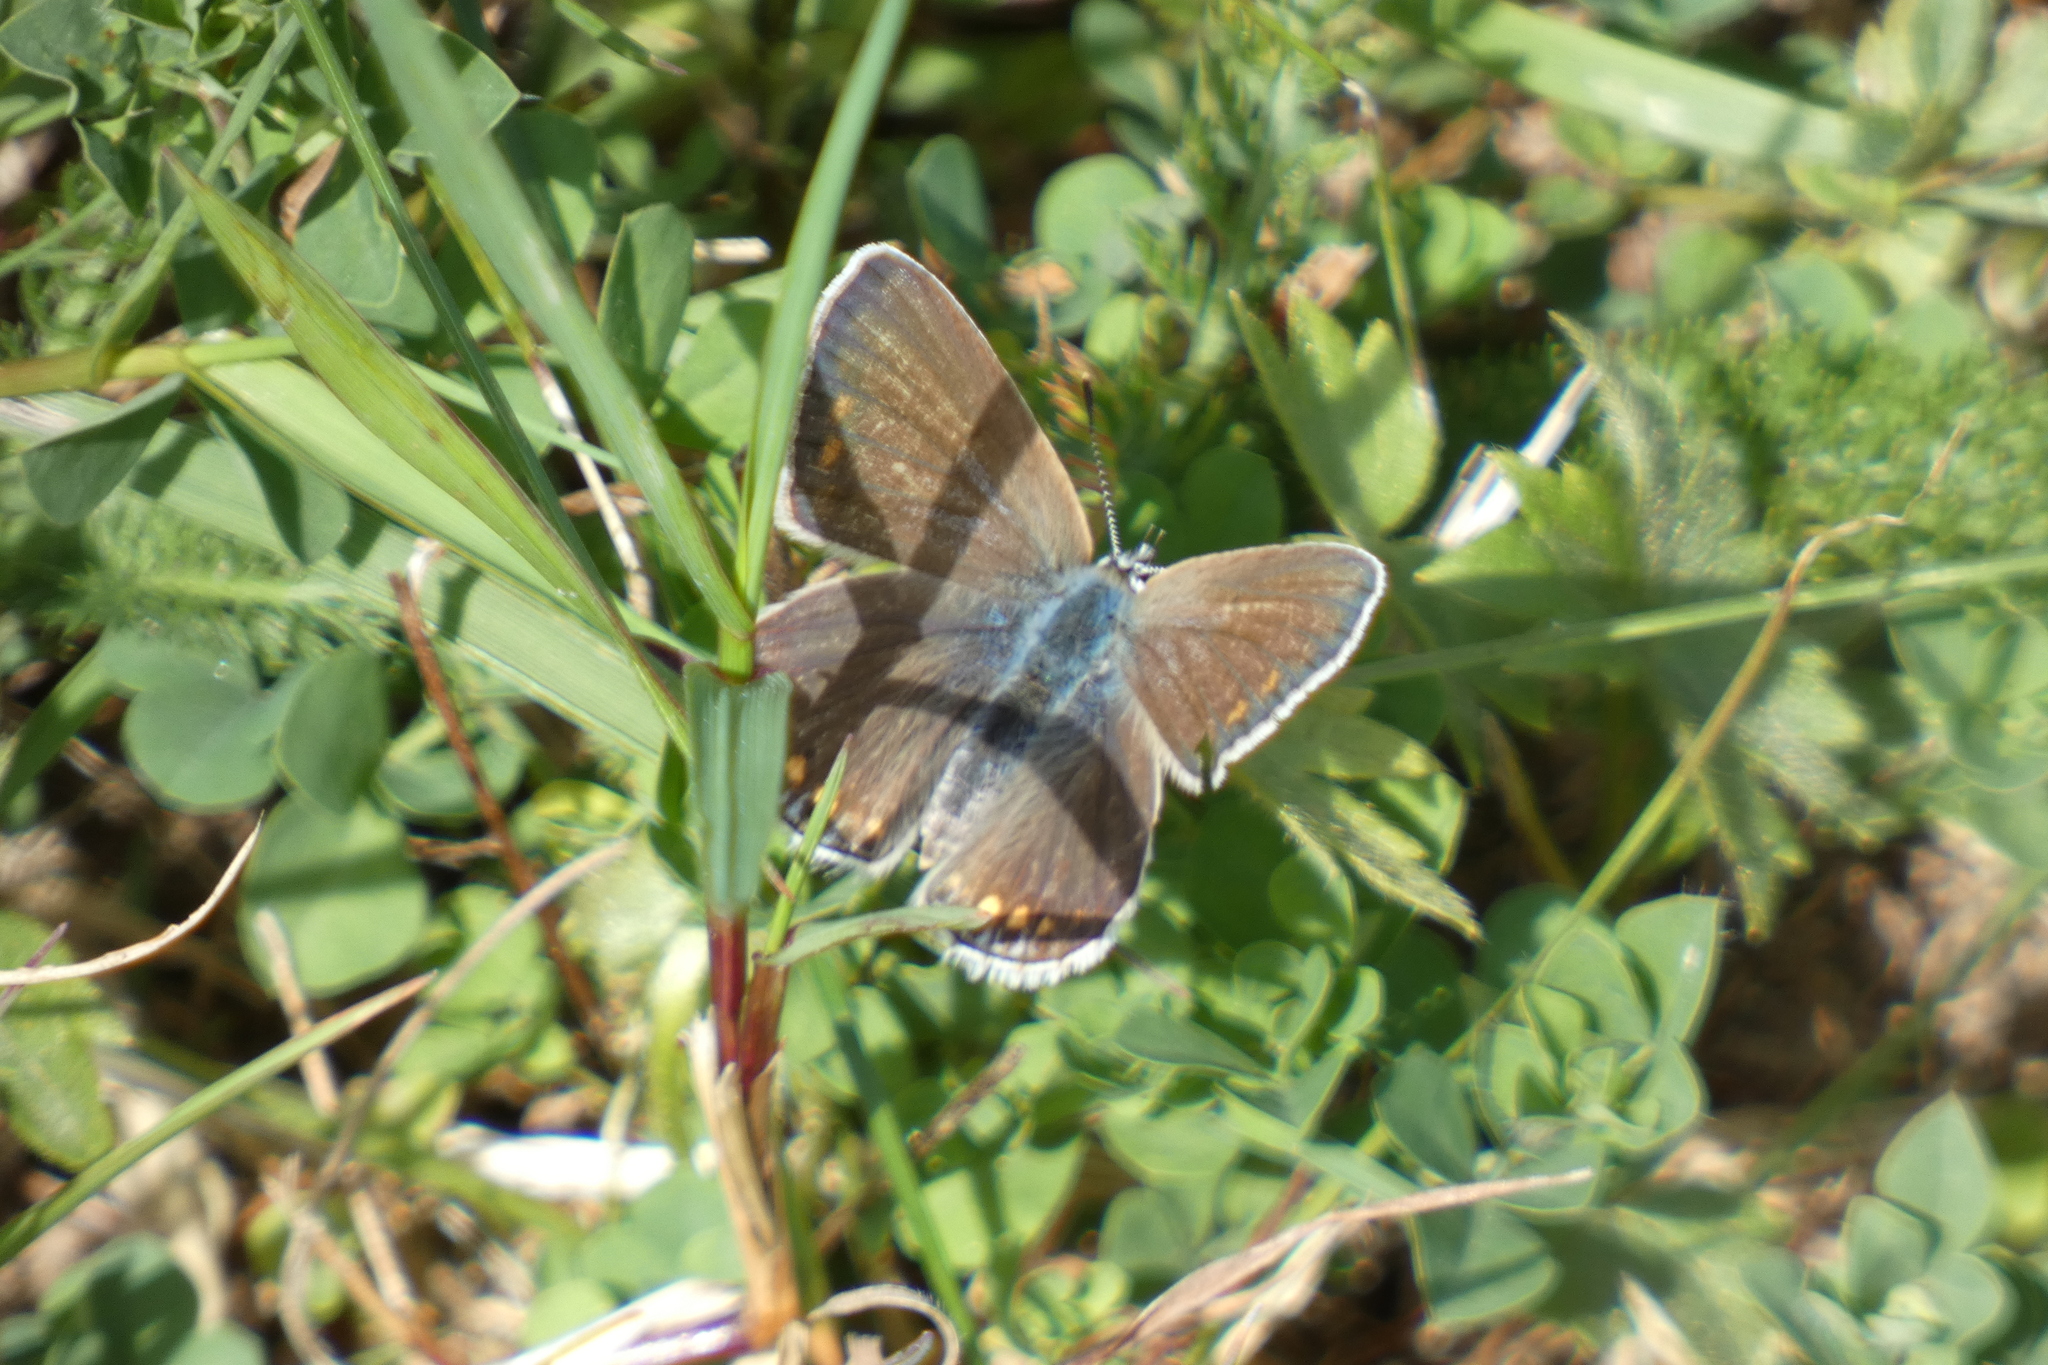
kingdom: Animalia
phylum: Arthropoda
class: Insecta
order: Lepidoptera
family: Lycaenidae
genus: Polyommatus
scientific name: Polyommatus icarus
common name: Common blue
